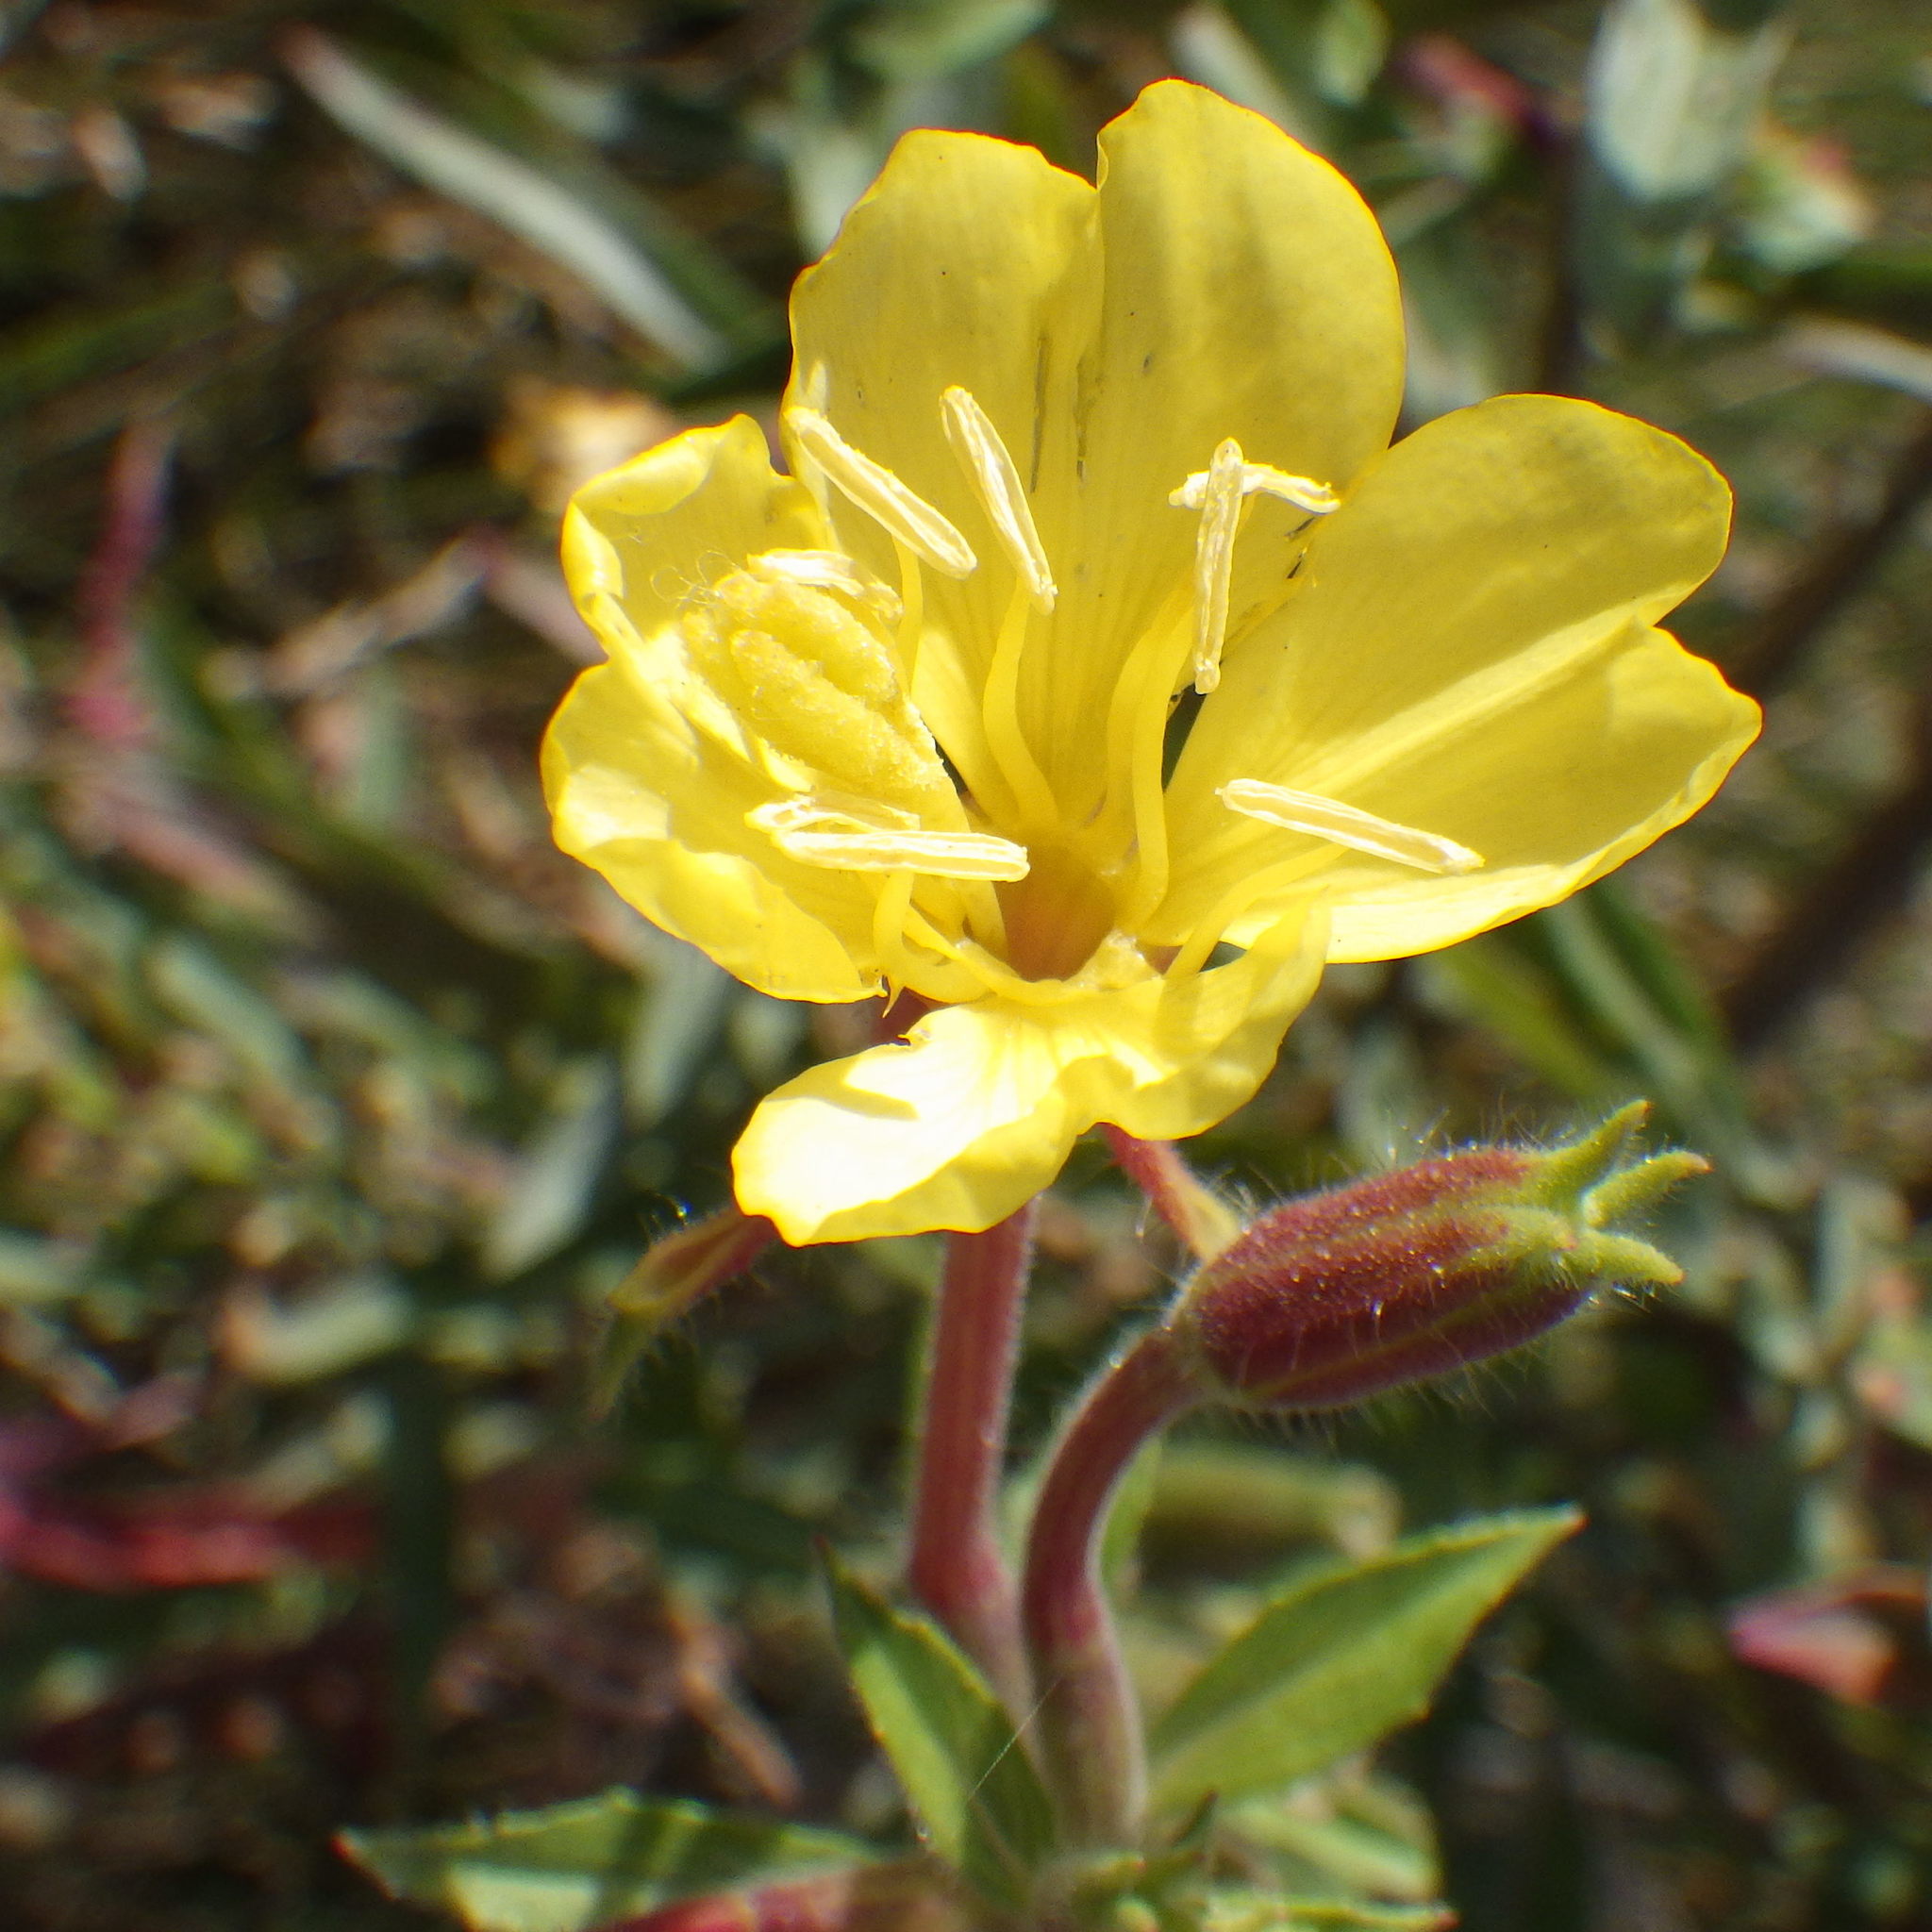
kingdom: Plantae
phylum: Tracheophyta
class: Magnoliopsida
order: Myrtales
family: Onagraceae
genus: Oenothera
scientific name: Oenothera biennis
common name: Common evening-primrose
